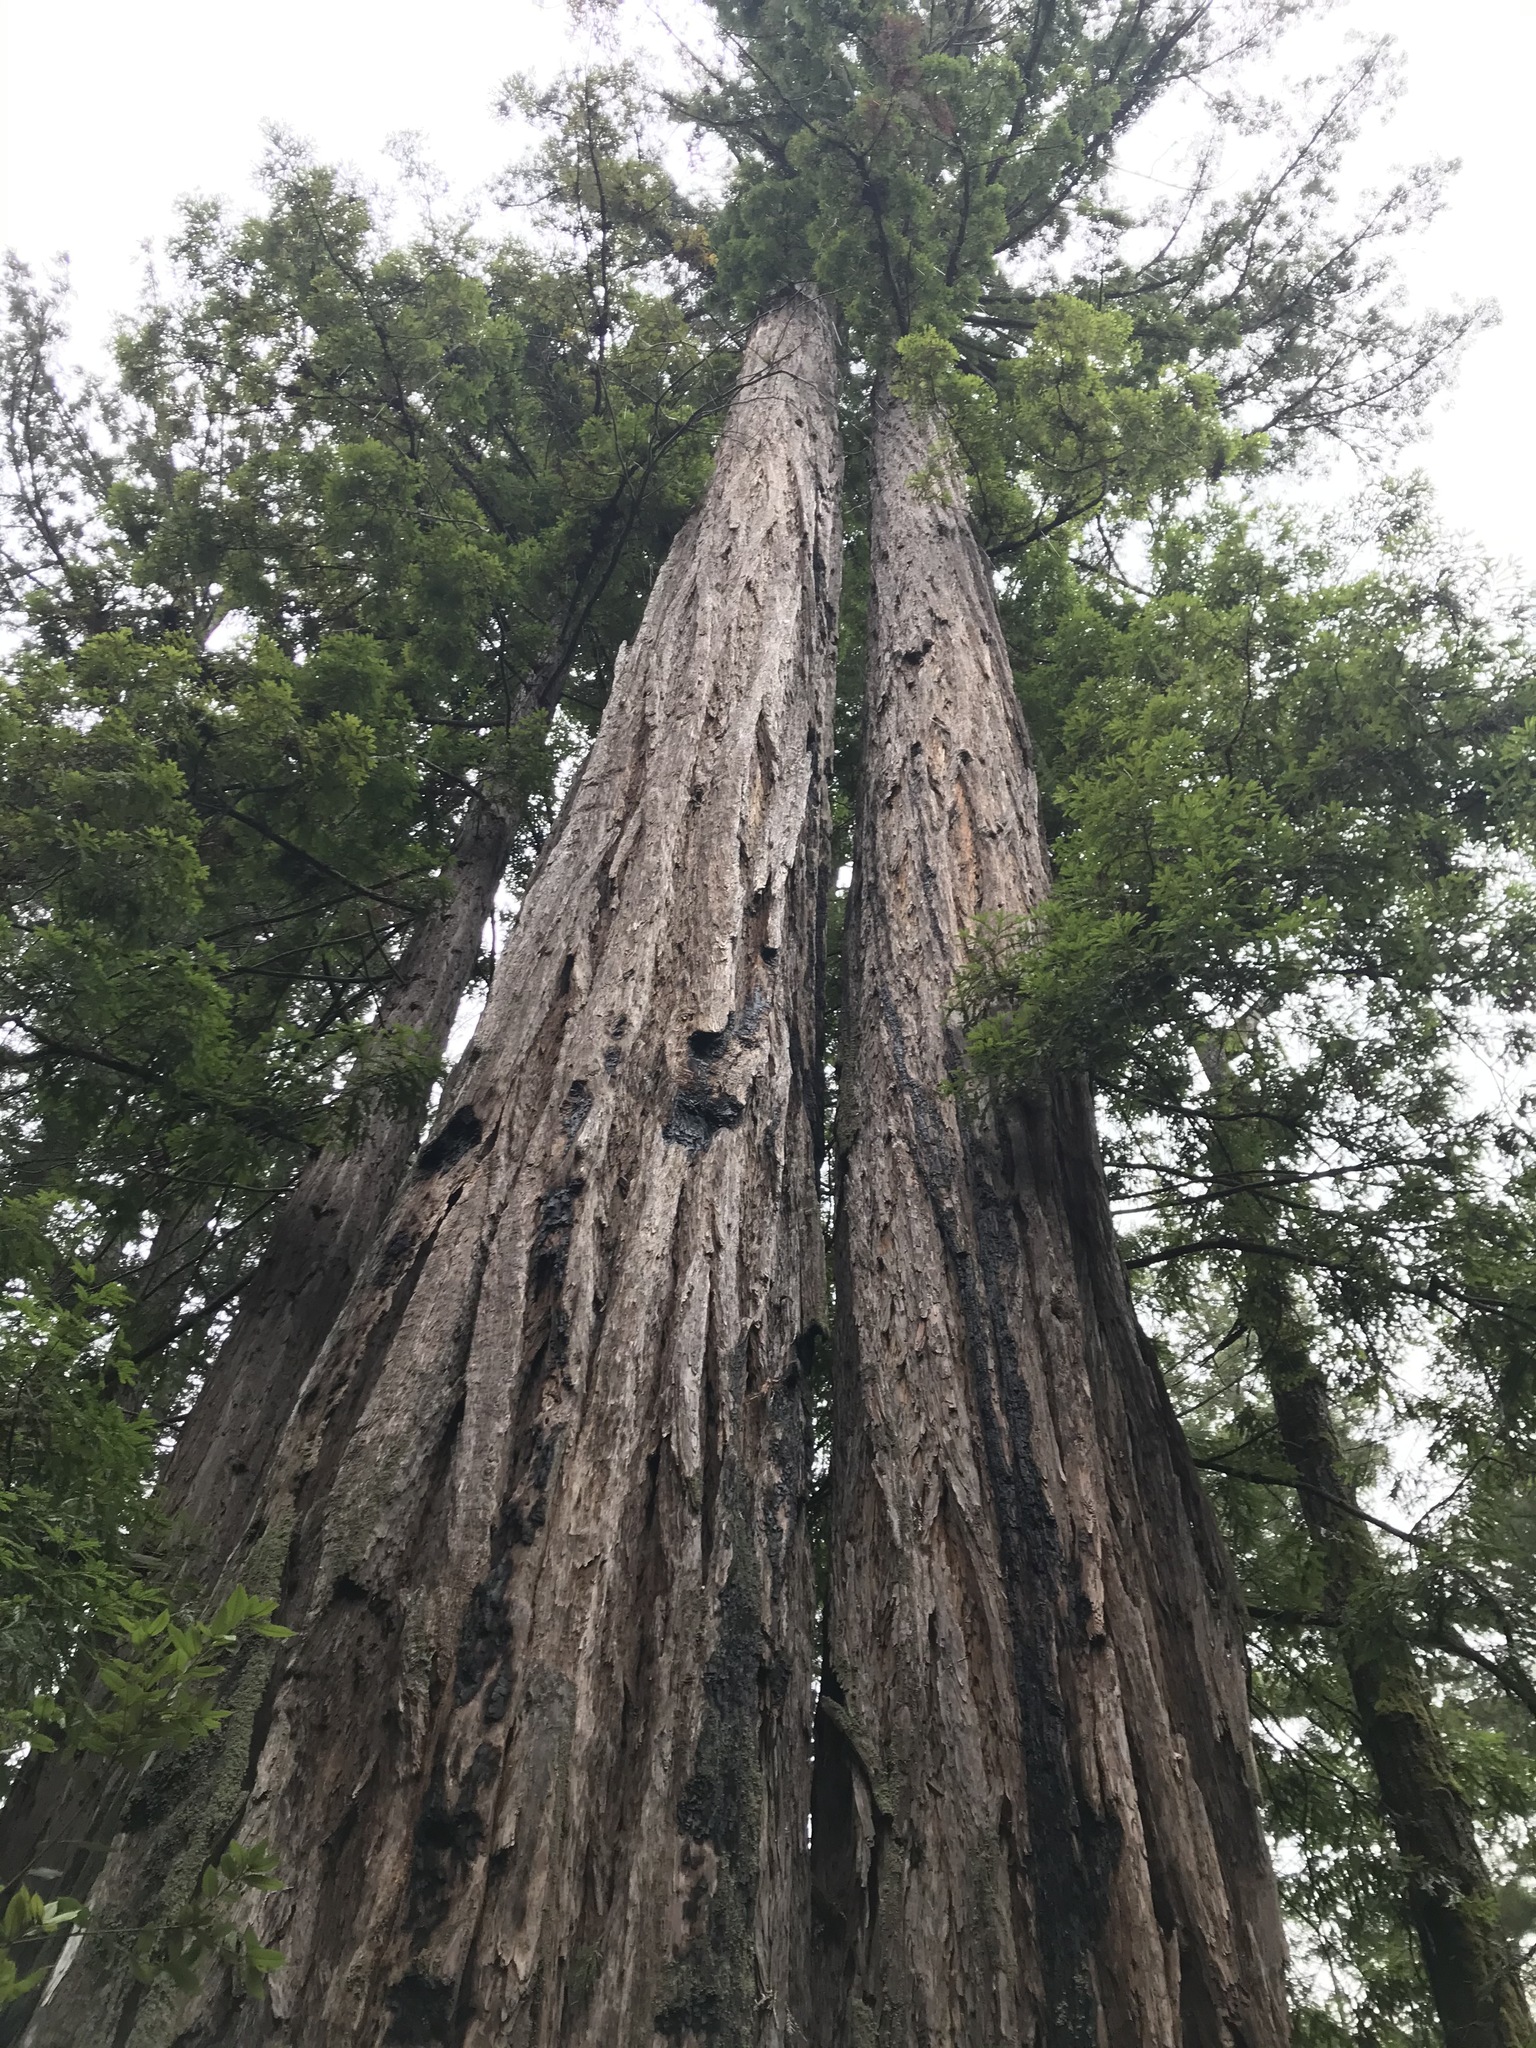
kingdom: Plantae
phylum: Tracheophyta
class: Pinopsida
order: Pinales
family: Cupressaceae
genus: Sequoia
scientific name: Sequoia sempervirens
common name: Coast redwood
